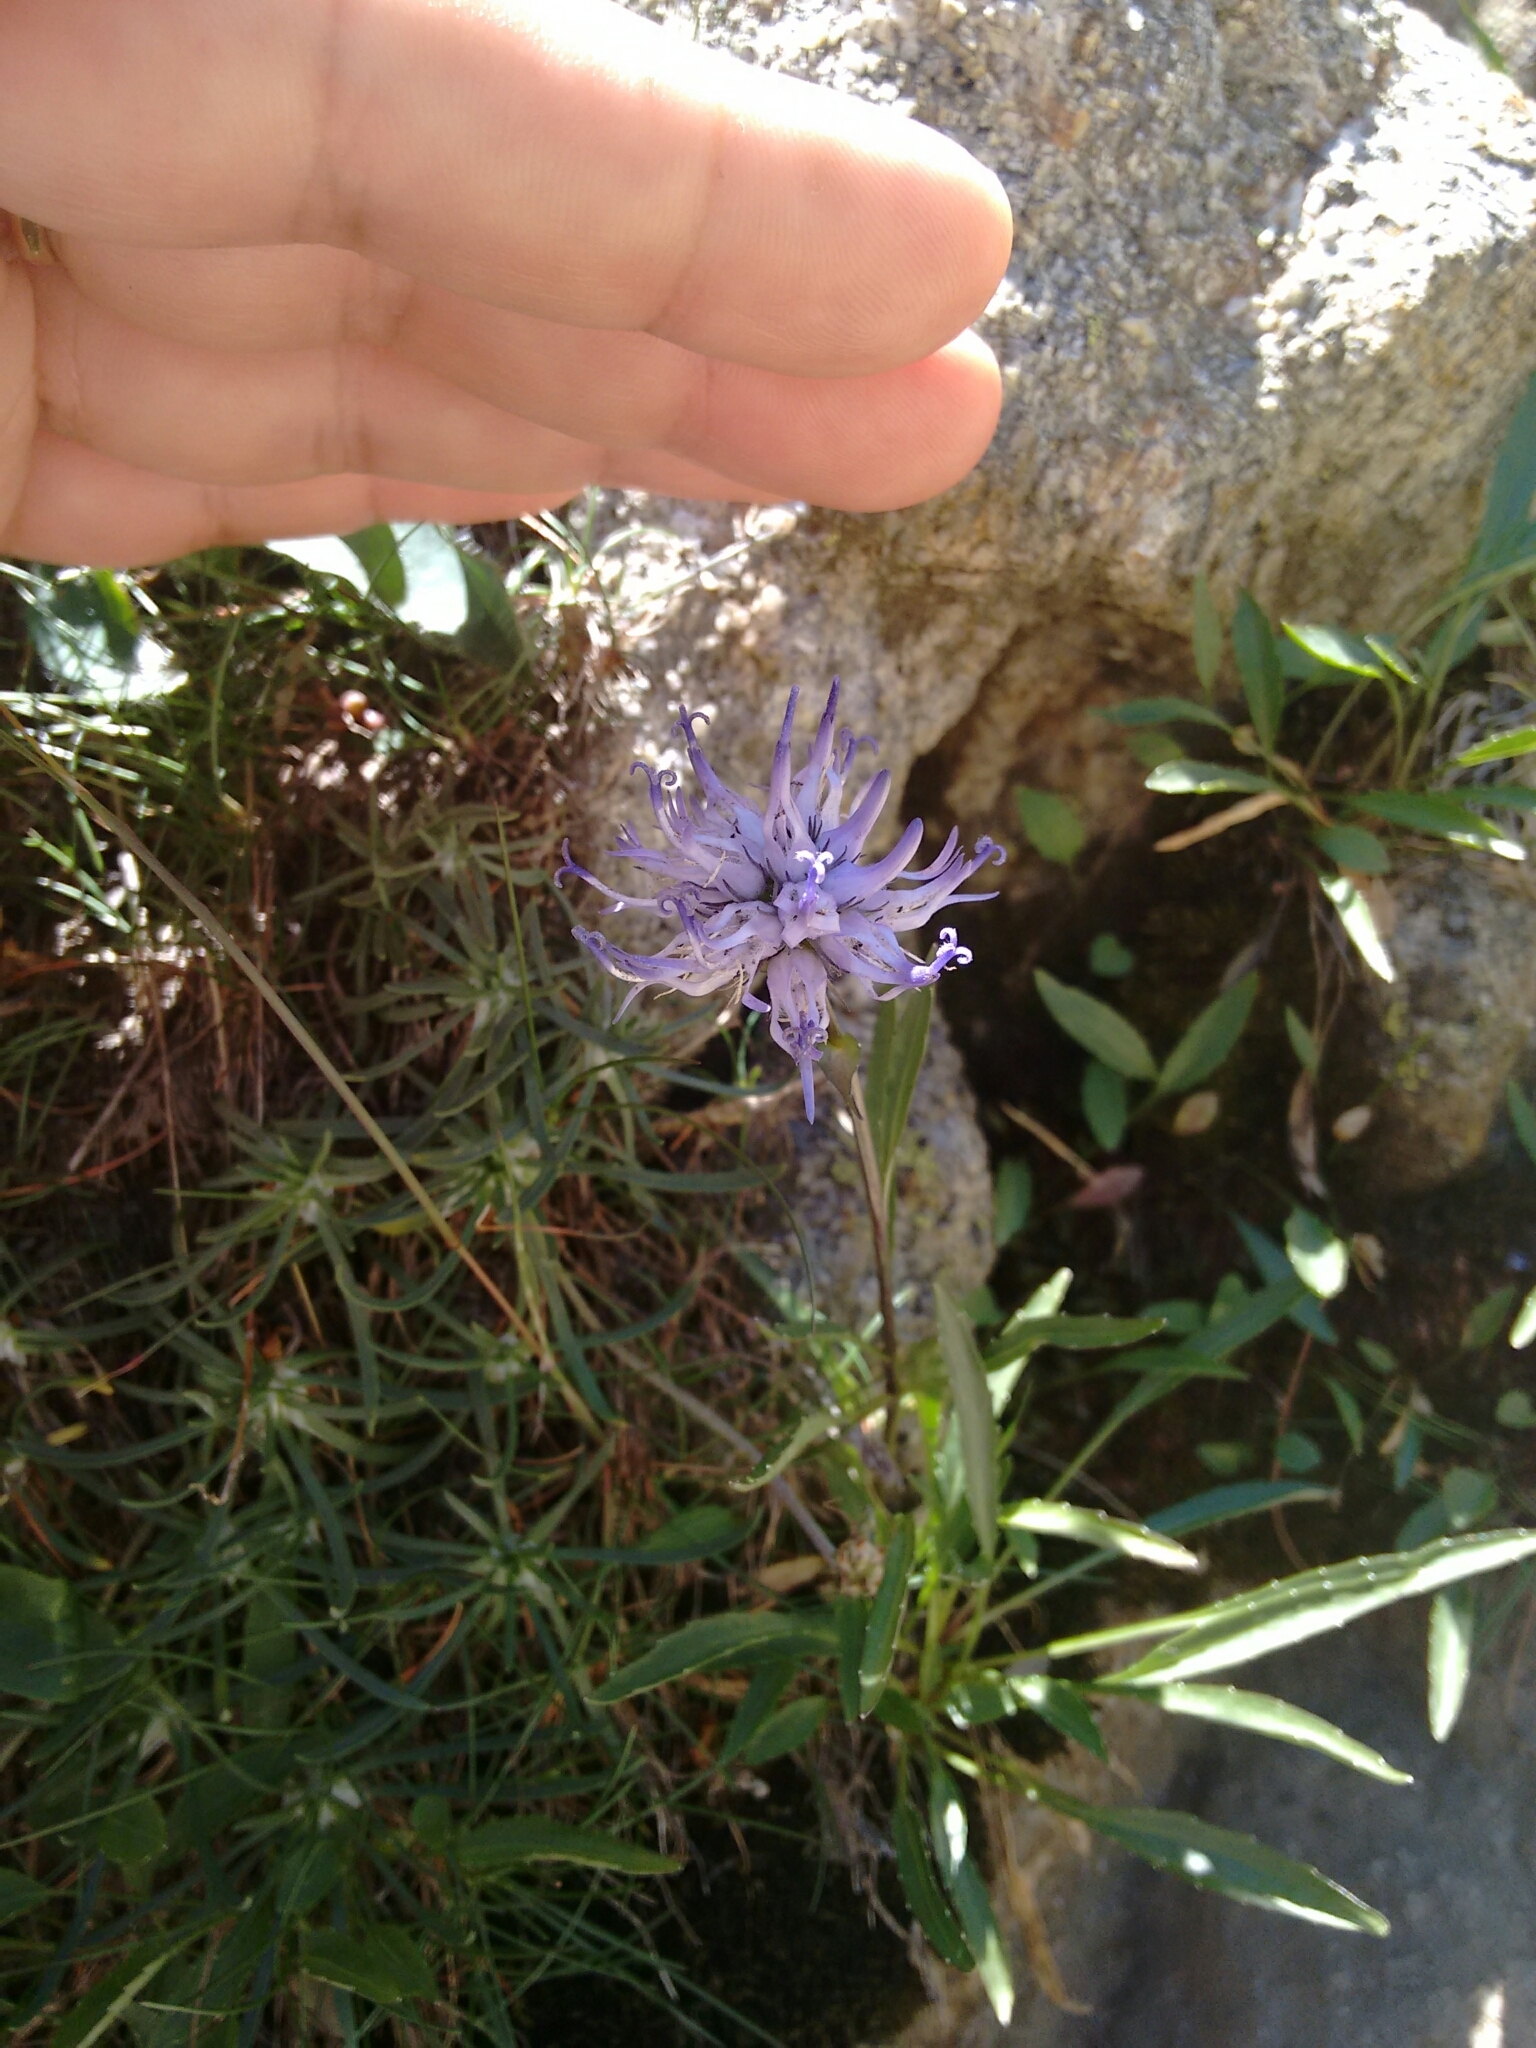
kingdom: Plantae
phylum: Tracheophyta
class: Magnoliopsida
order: Asterales
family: Campanulaceae
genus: Phyteuma
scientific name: Phyteuma serratum
